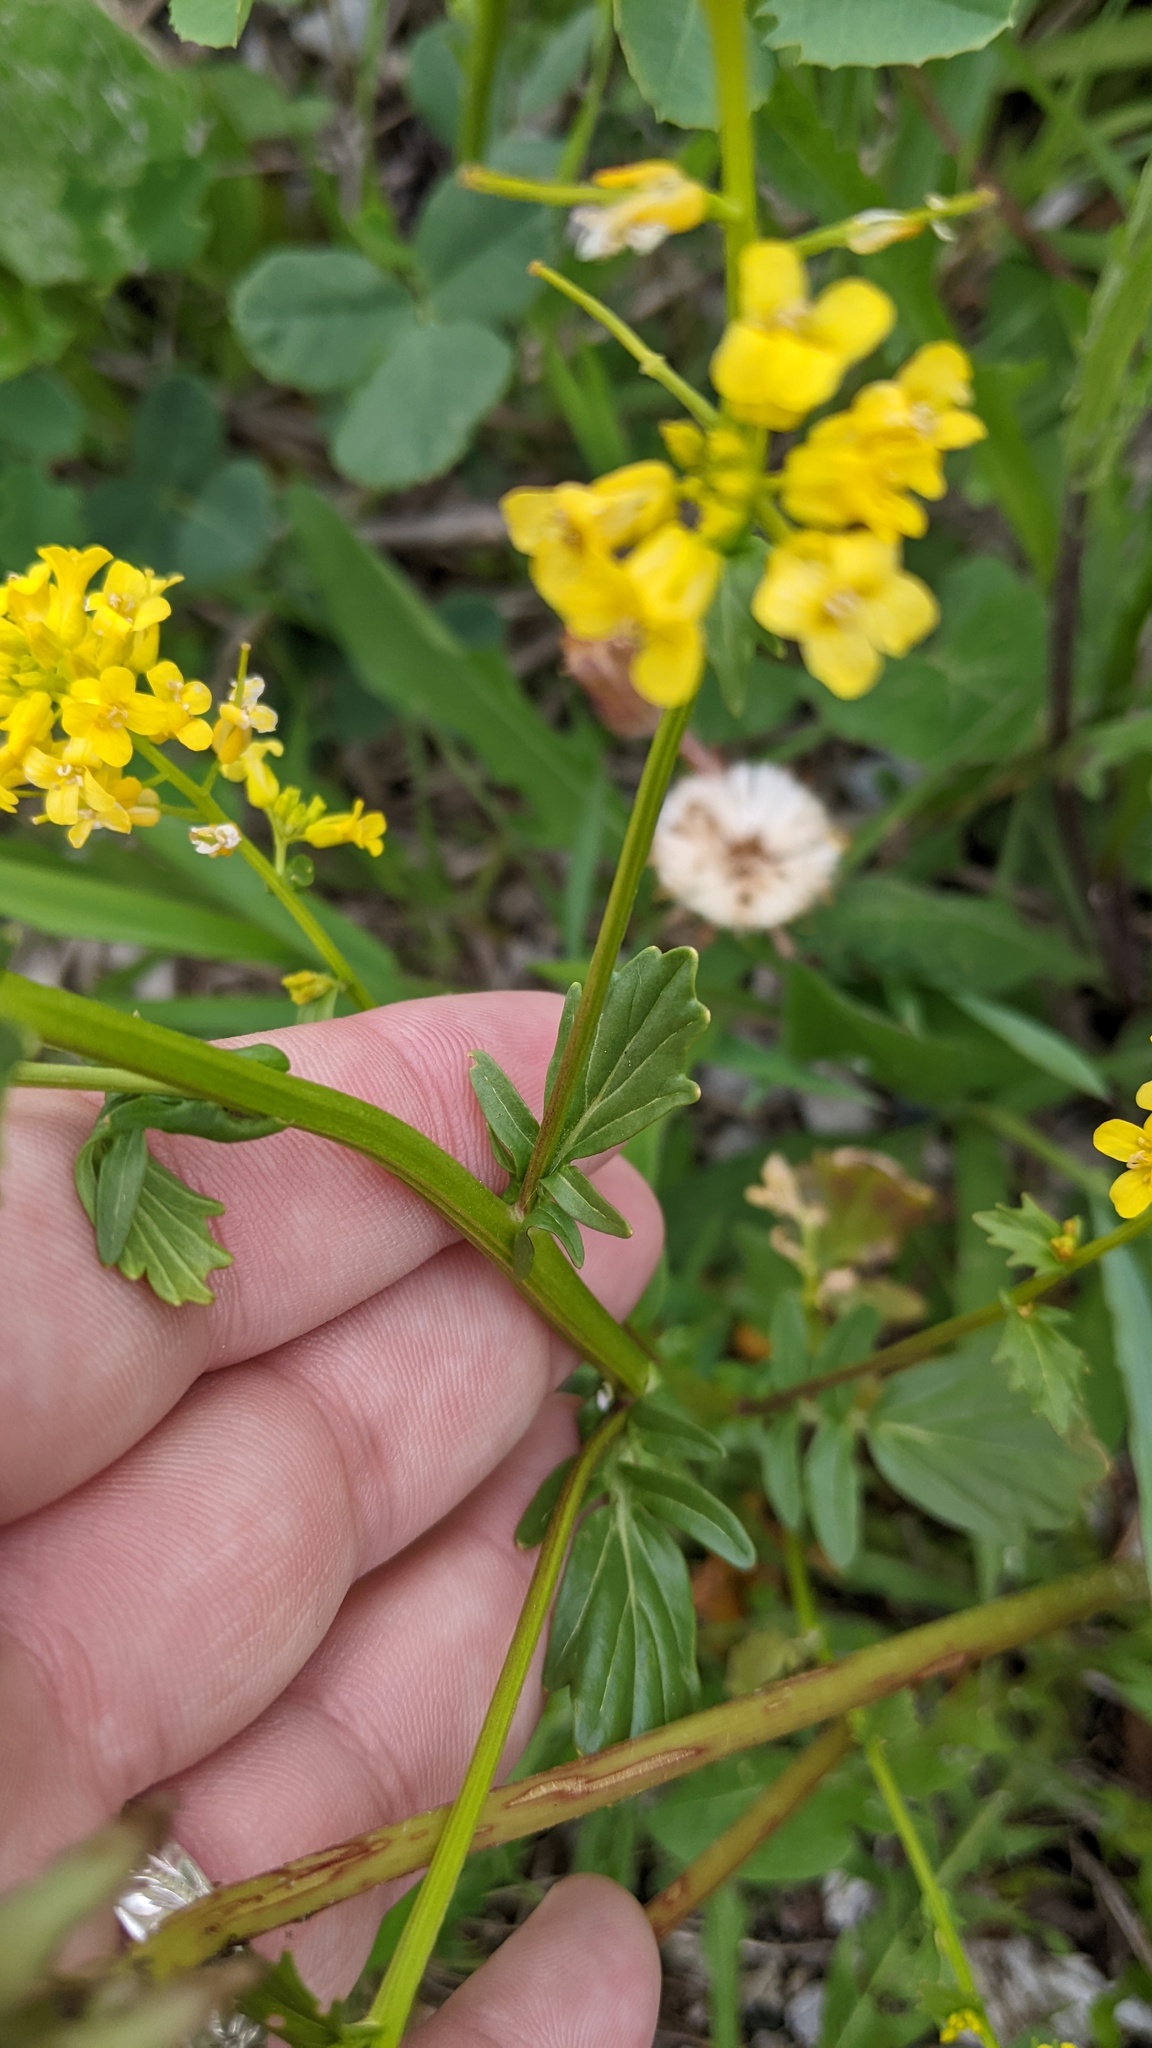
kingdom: Plantae
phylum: Tracheophyta
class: Magnoliopsida
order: Brassicales
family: Brassicaceae
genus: Barbarea
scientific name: Barbarea vulgaris
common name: Cressy-greens
